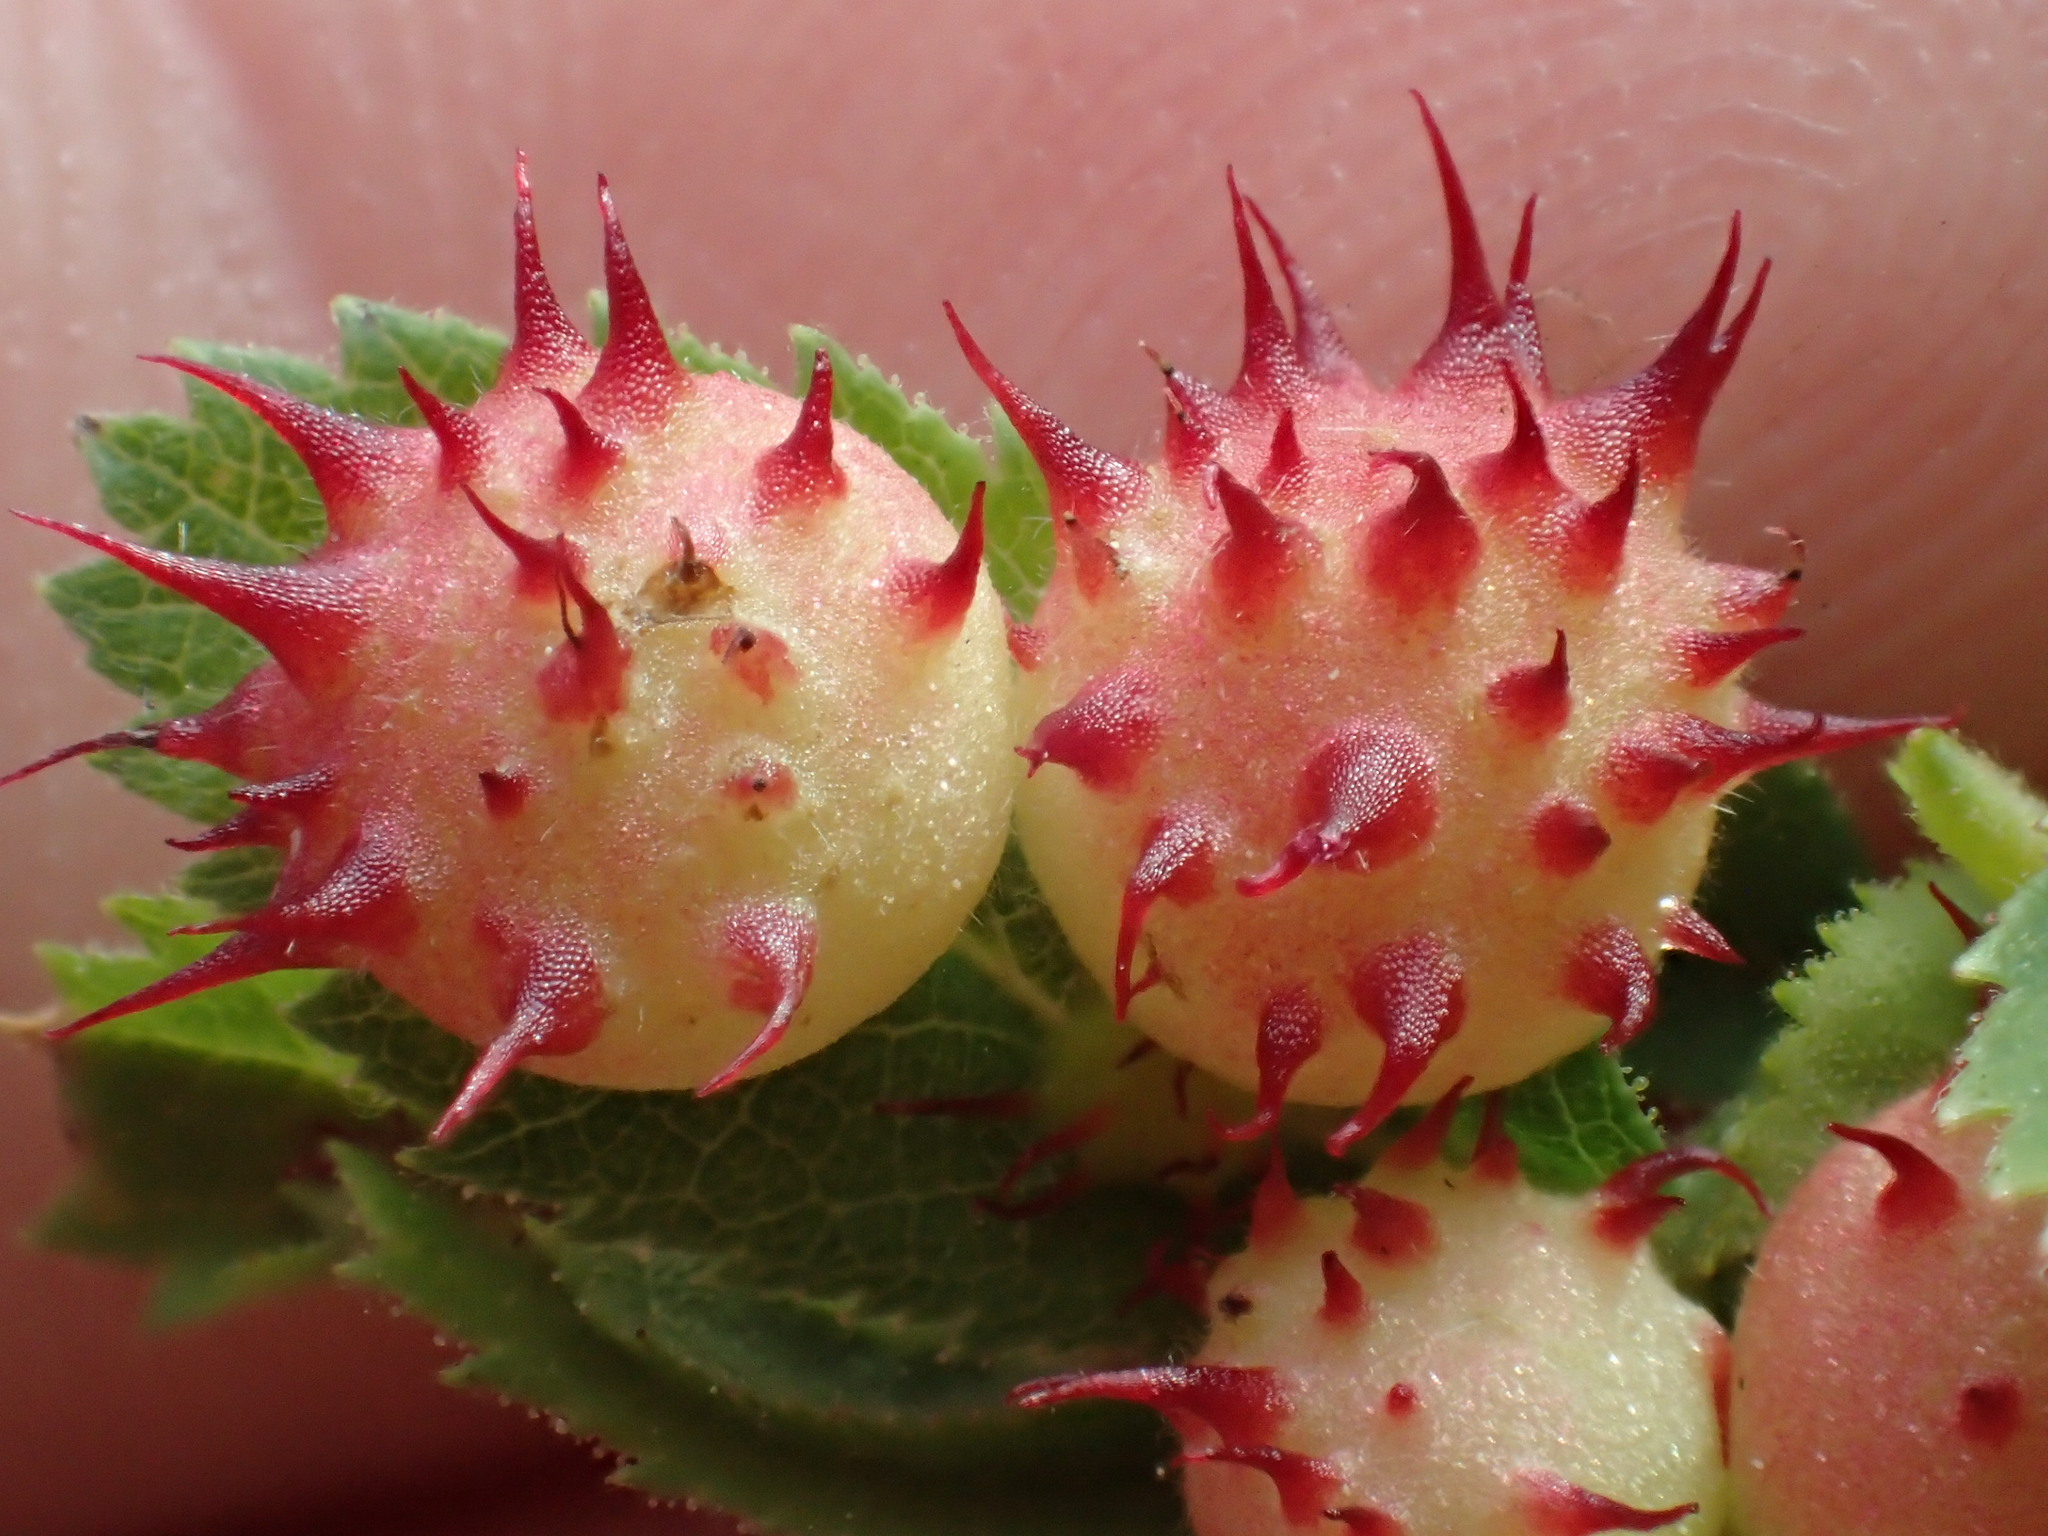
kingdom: Animalia
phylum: Arthropoda
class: Insecta
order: Hymenoptera
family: Cynipidae
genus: Diplolepis
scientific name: Diplolepis polita
